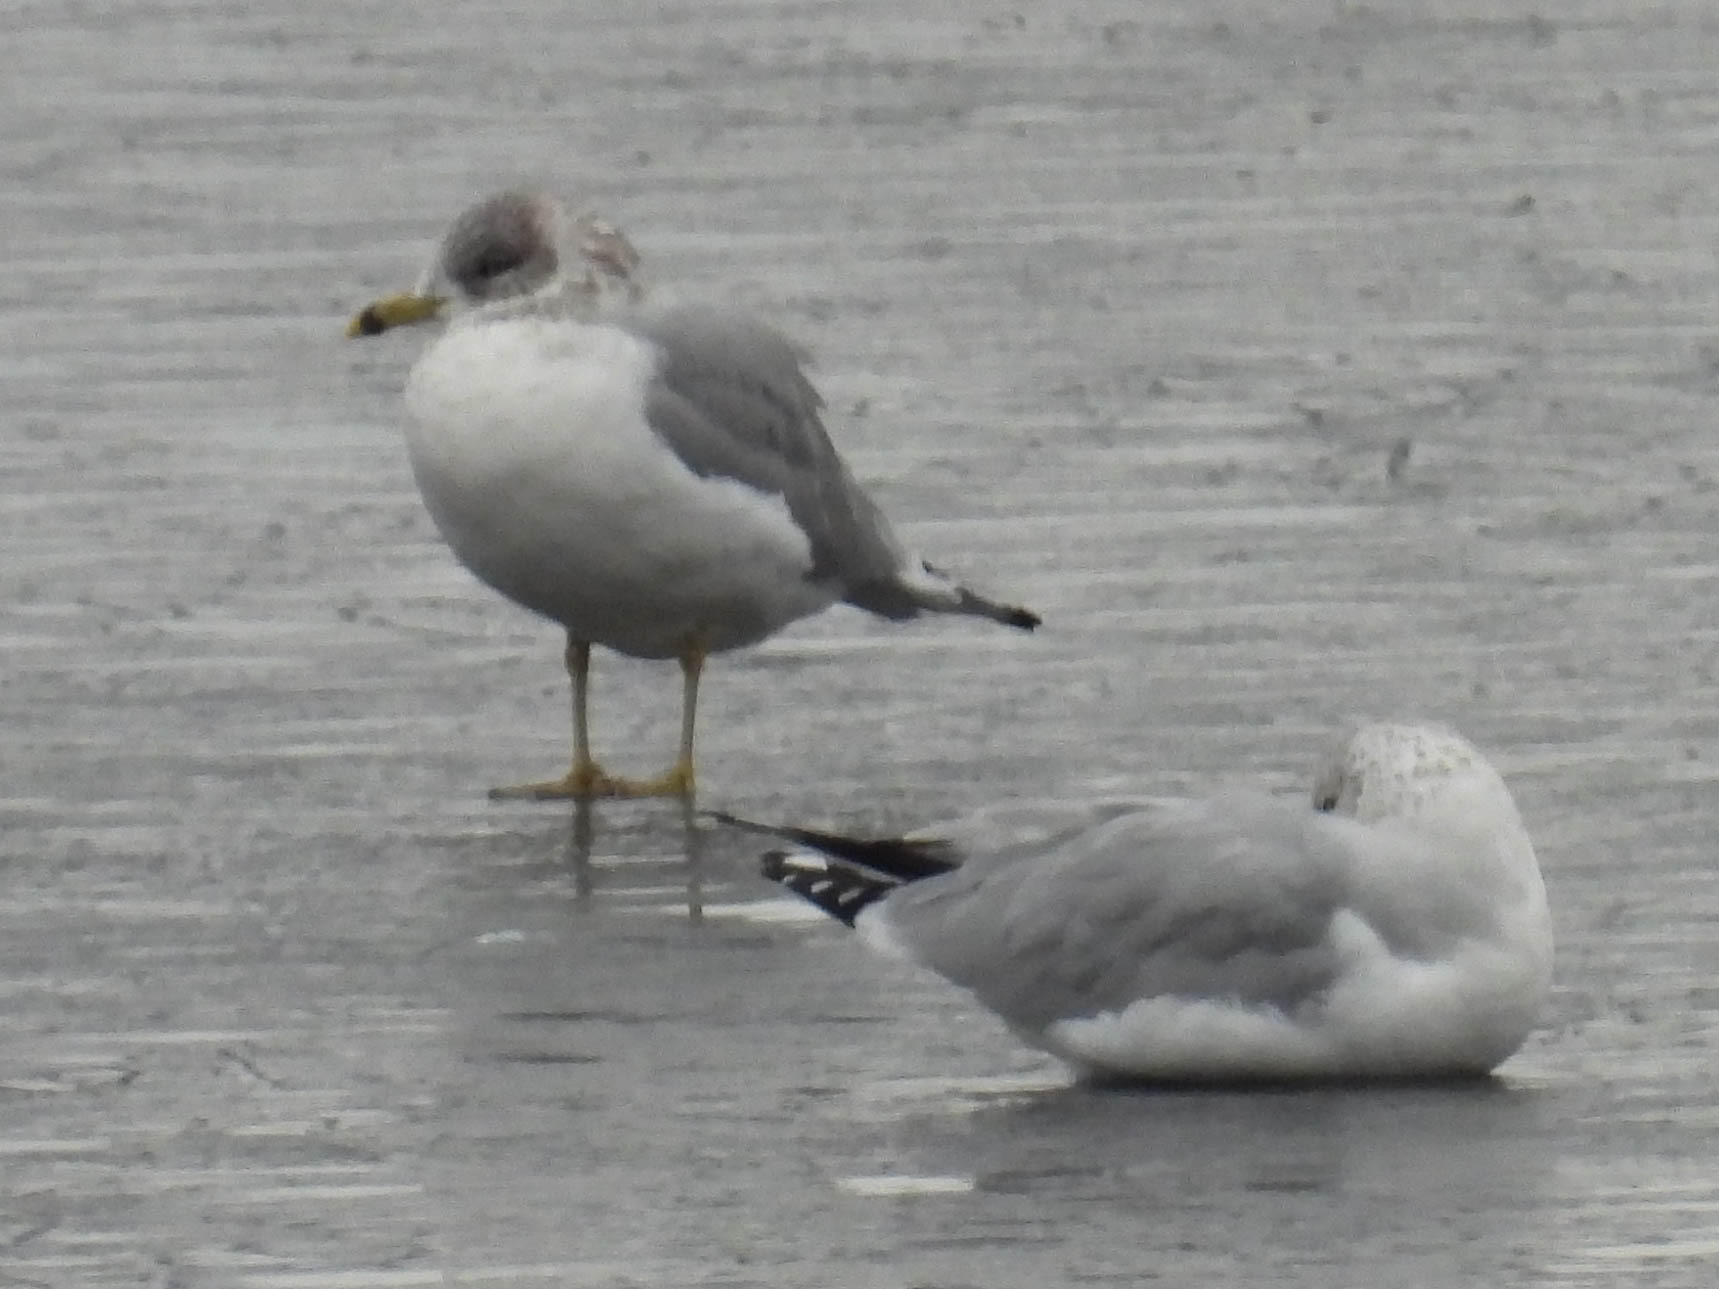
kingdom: Animalia
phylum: Chordata
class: Aves
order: Charadriiformes
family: Laridae
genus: Larus
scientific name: Larus delawarensis
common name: Ring-billed gull
